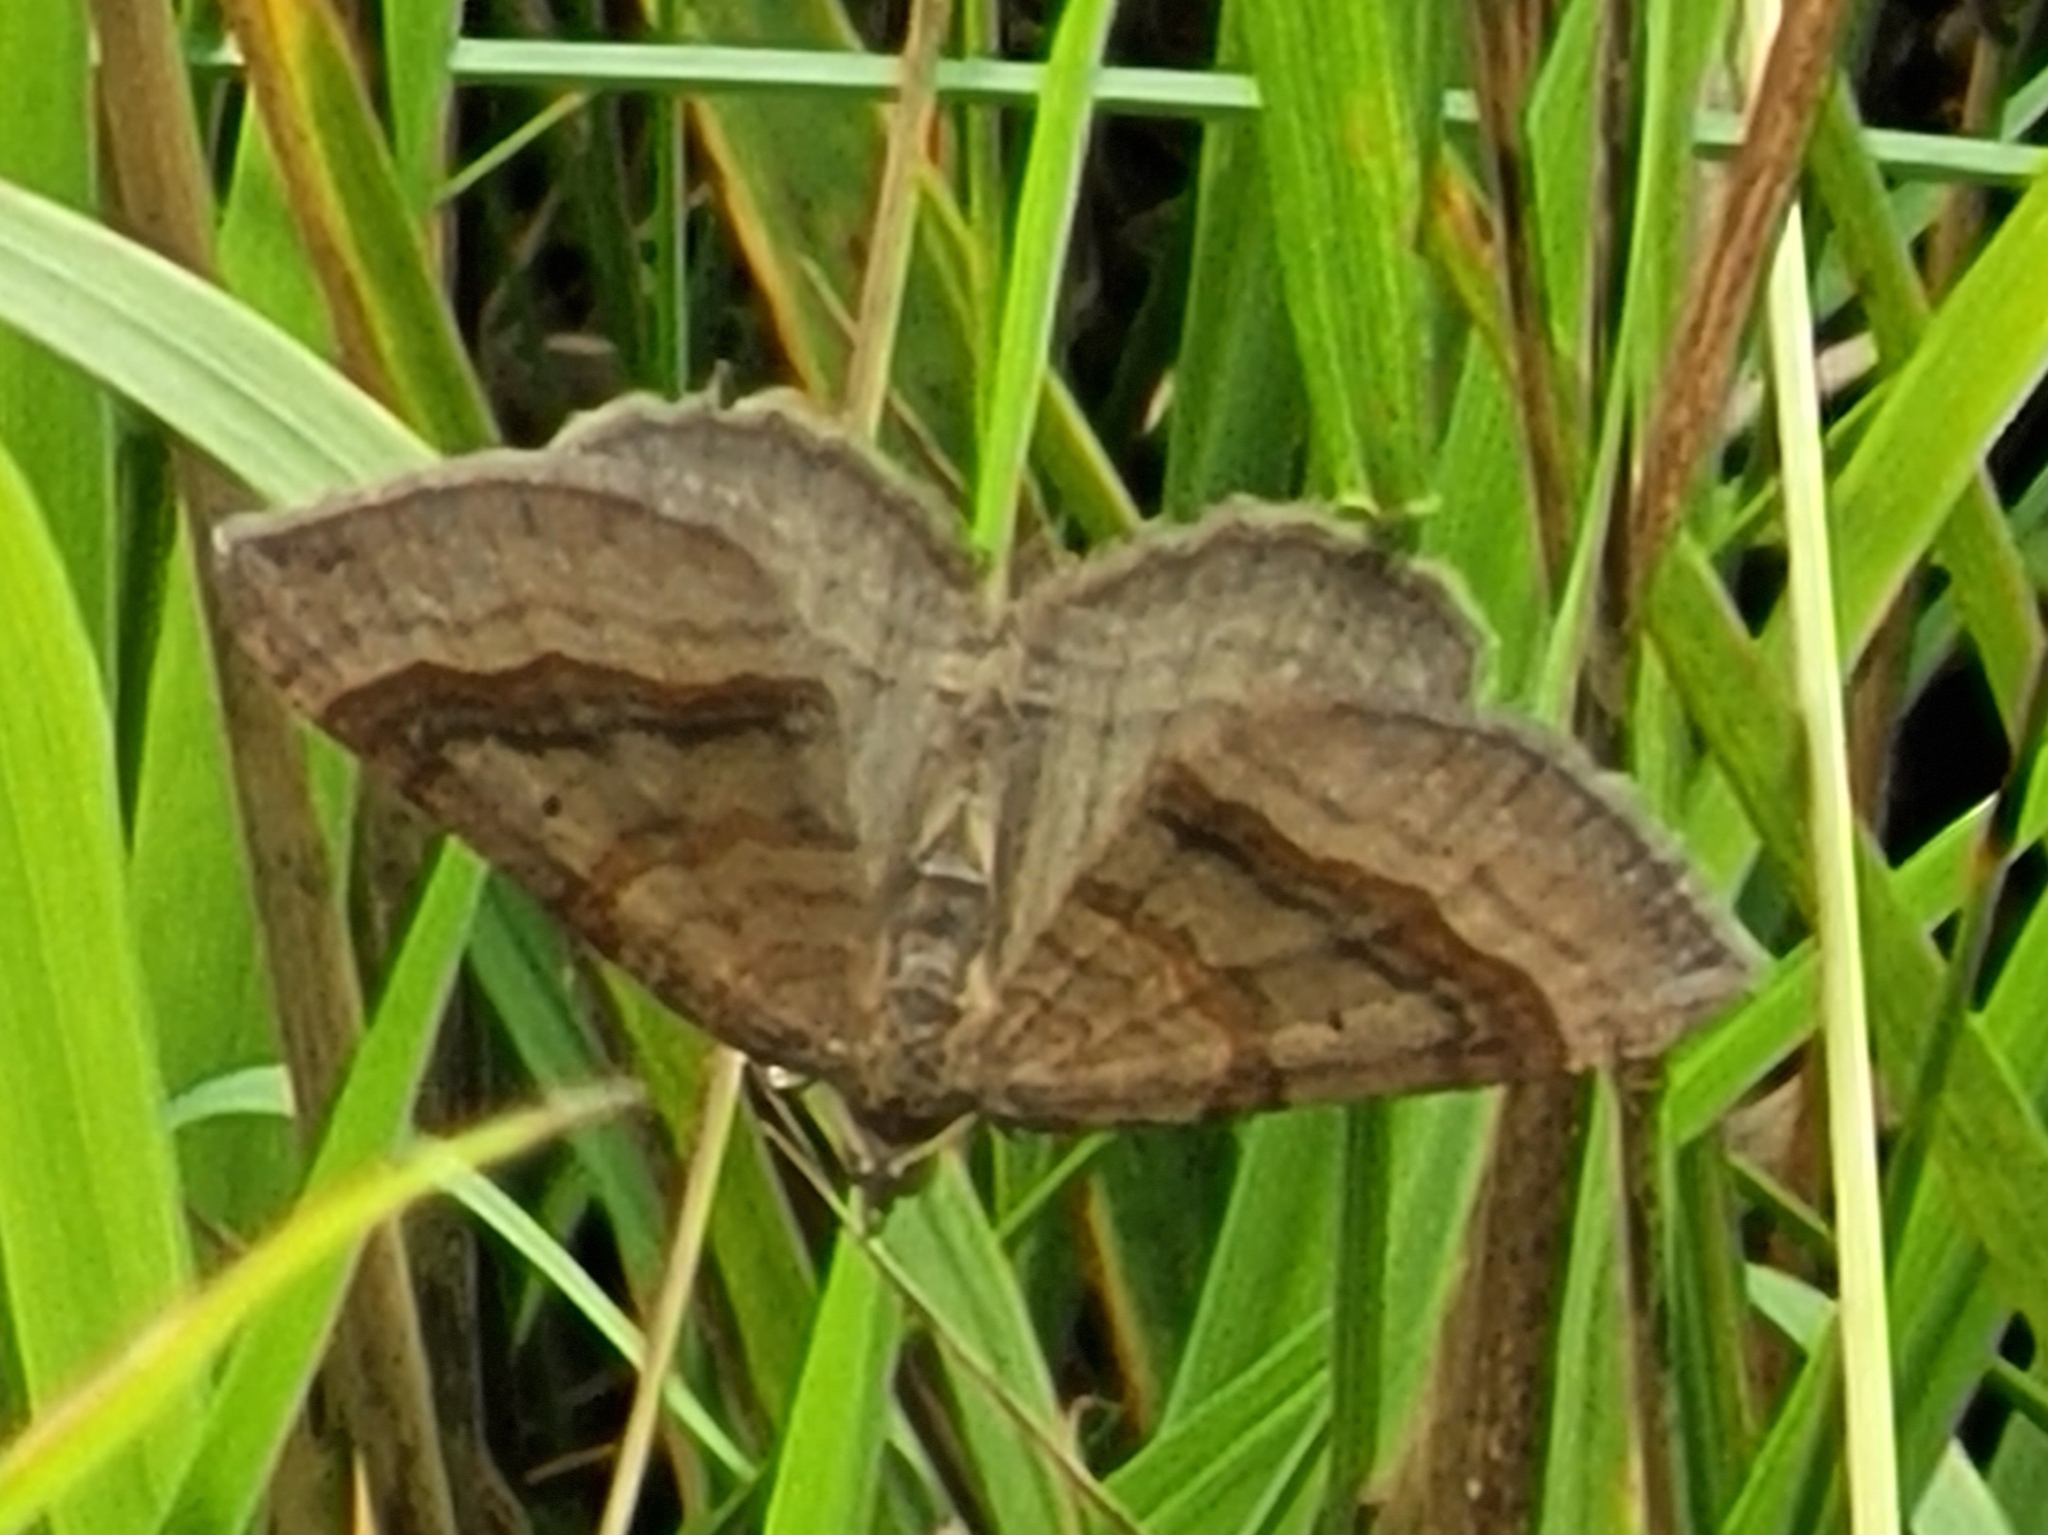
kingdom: Animalia
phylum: Arthropoda
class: Insecta
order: Lepidoptera
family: Geometridae
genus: Scotopteryx
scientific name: Scotopteryx chenopodiata
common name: Shaded broad-bar
